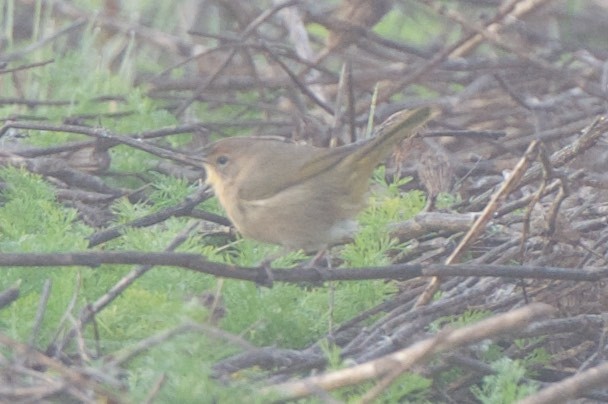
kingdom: Animalia
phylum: Chordata
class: Aves
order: Passeriformes
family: Parulidae
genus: Geothlypis
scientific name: Geothlypis trichas
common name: Common yellowthroat
